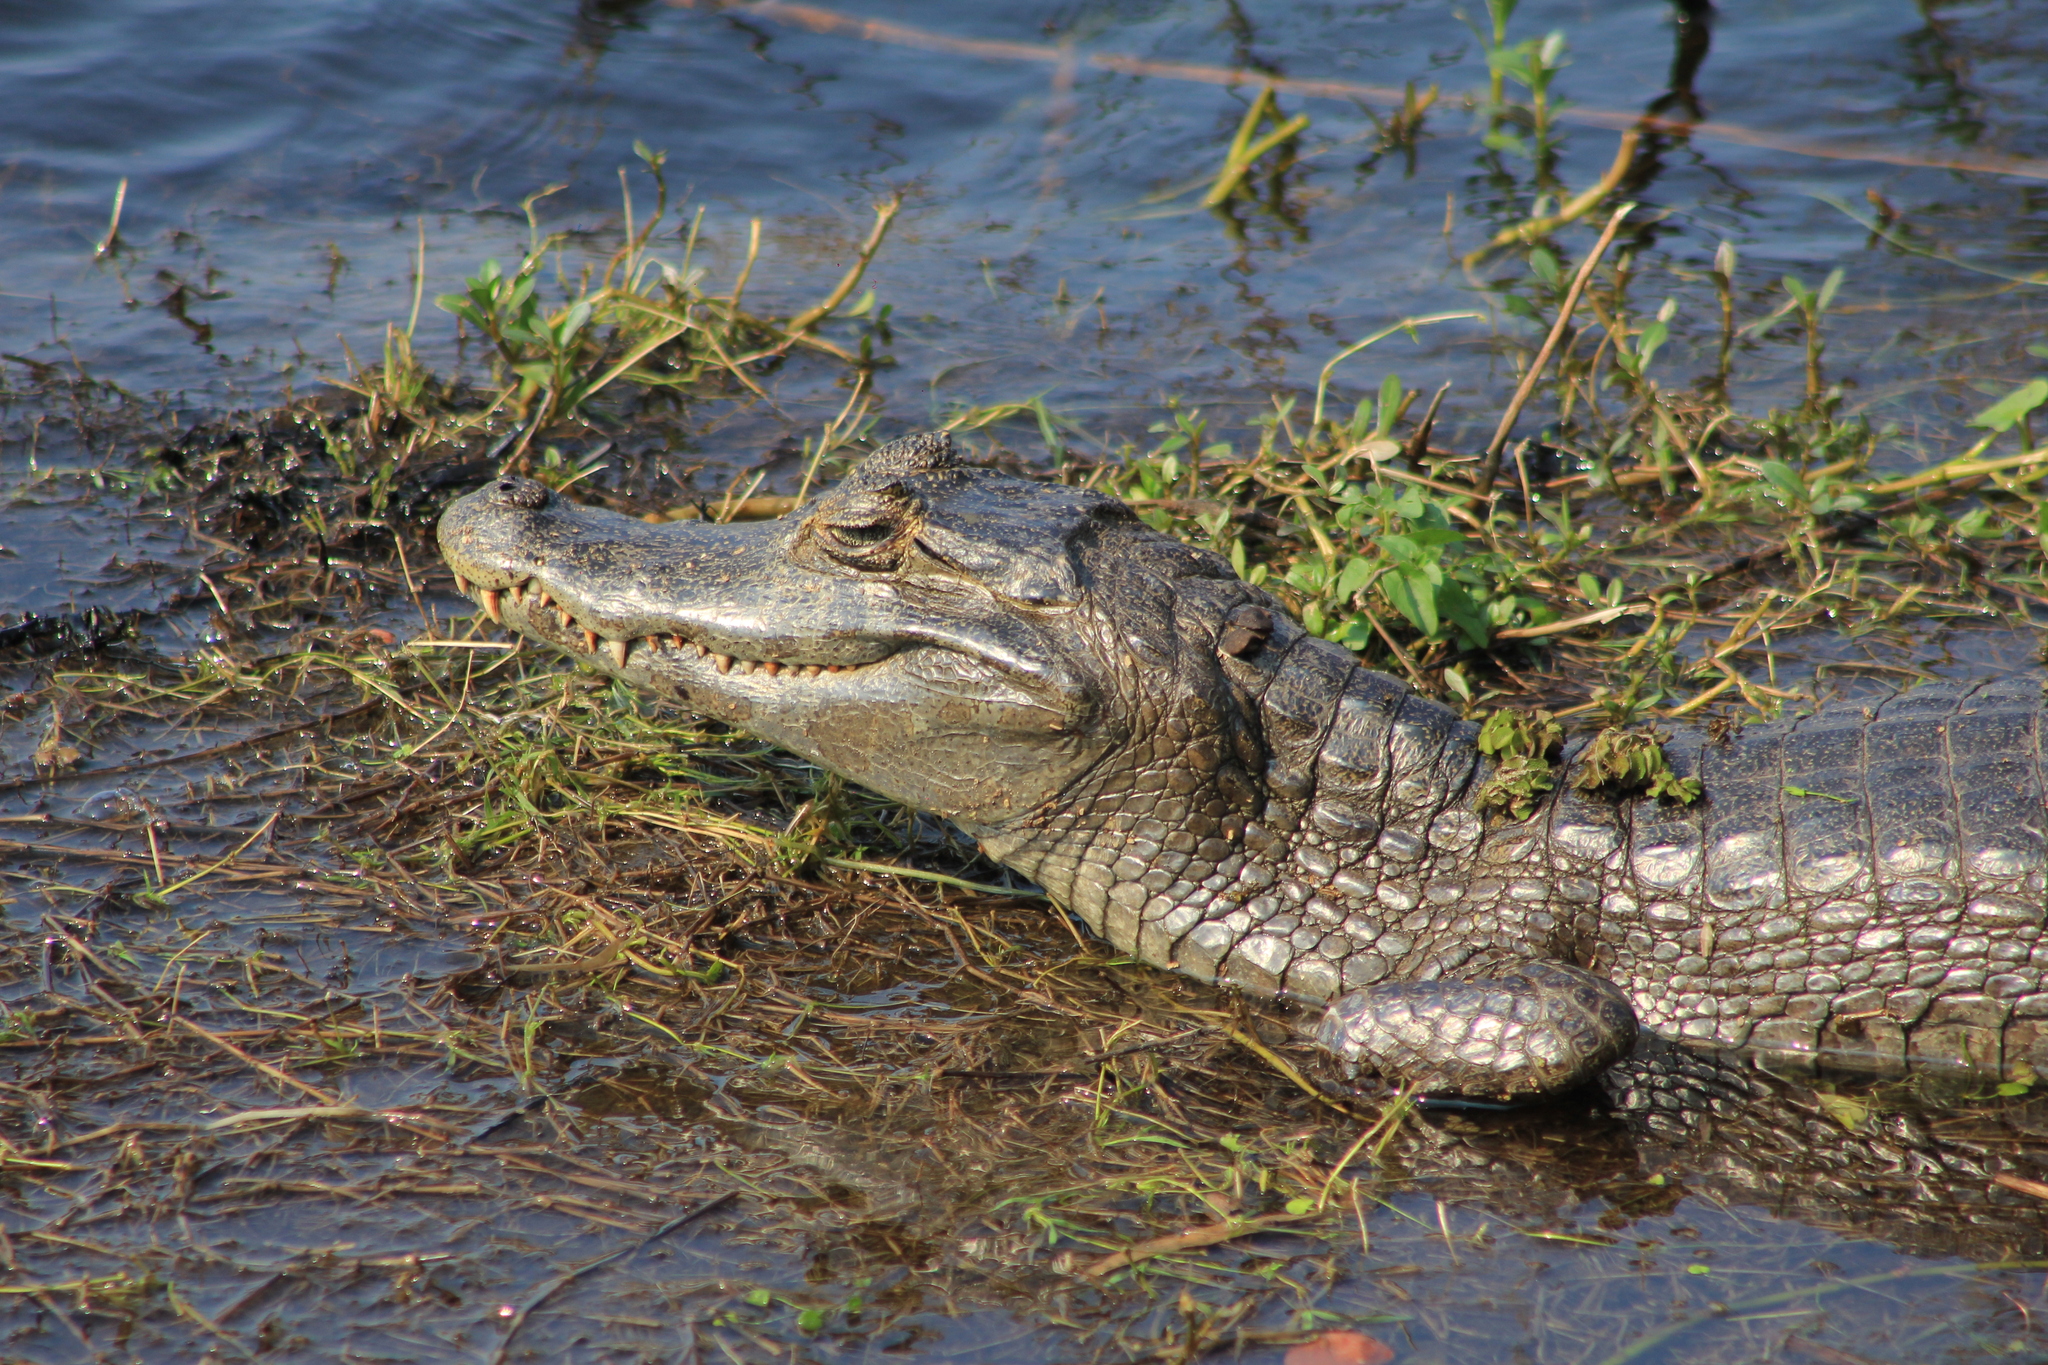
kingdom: Animalia
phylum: Chordata
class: Crocodylia
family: Alligatoridae
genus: Caiman
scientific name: Caiman yacare
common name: Yacare caiman
